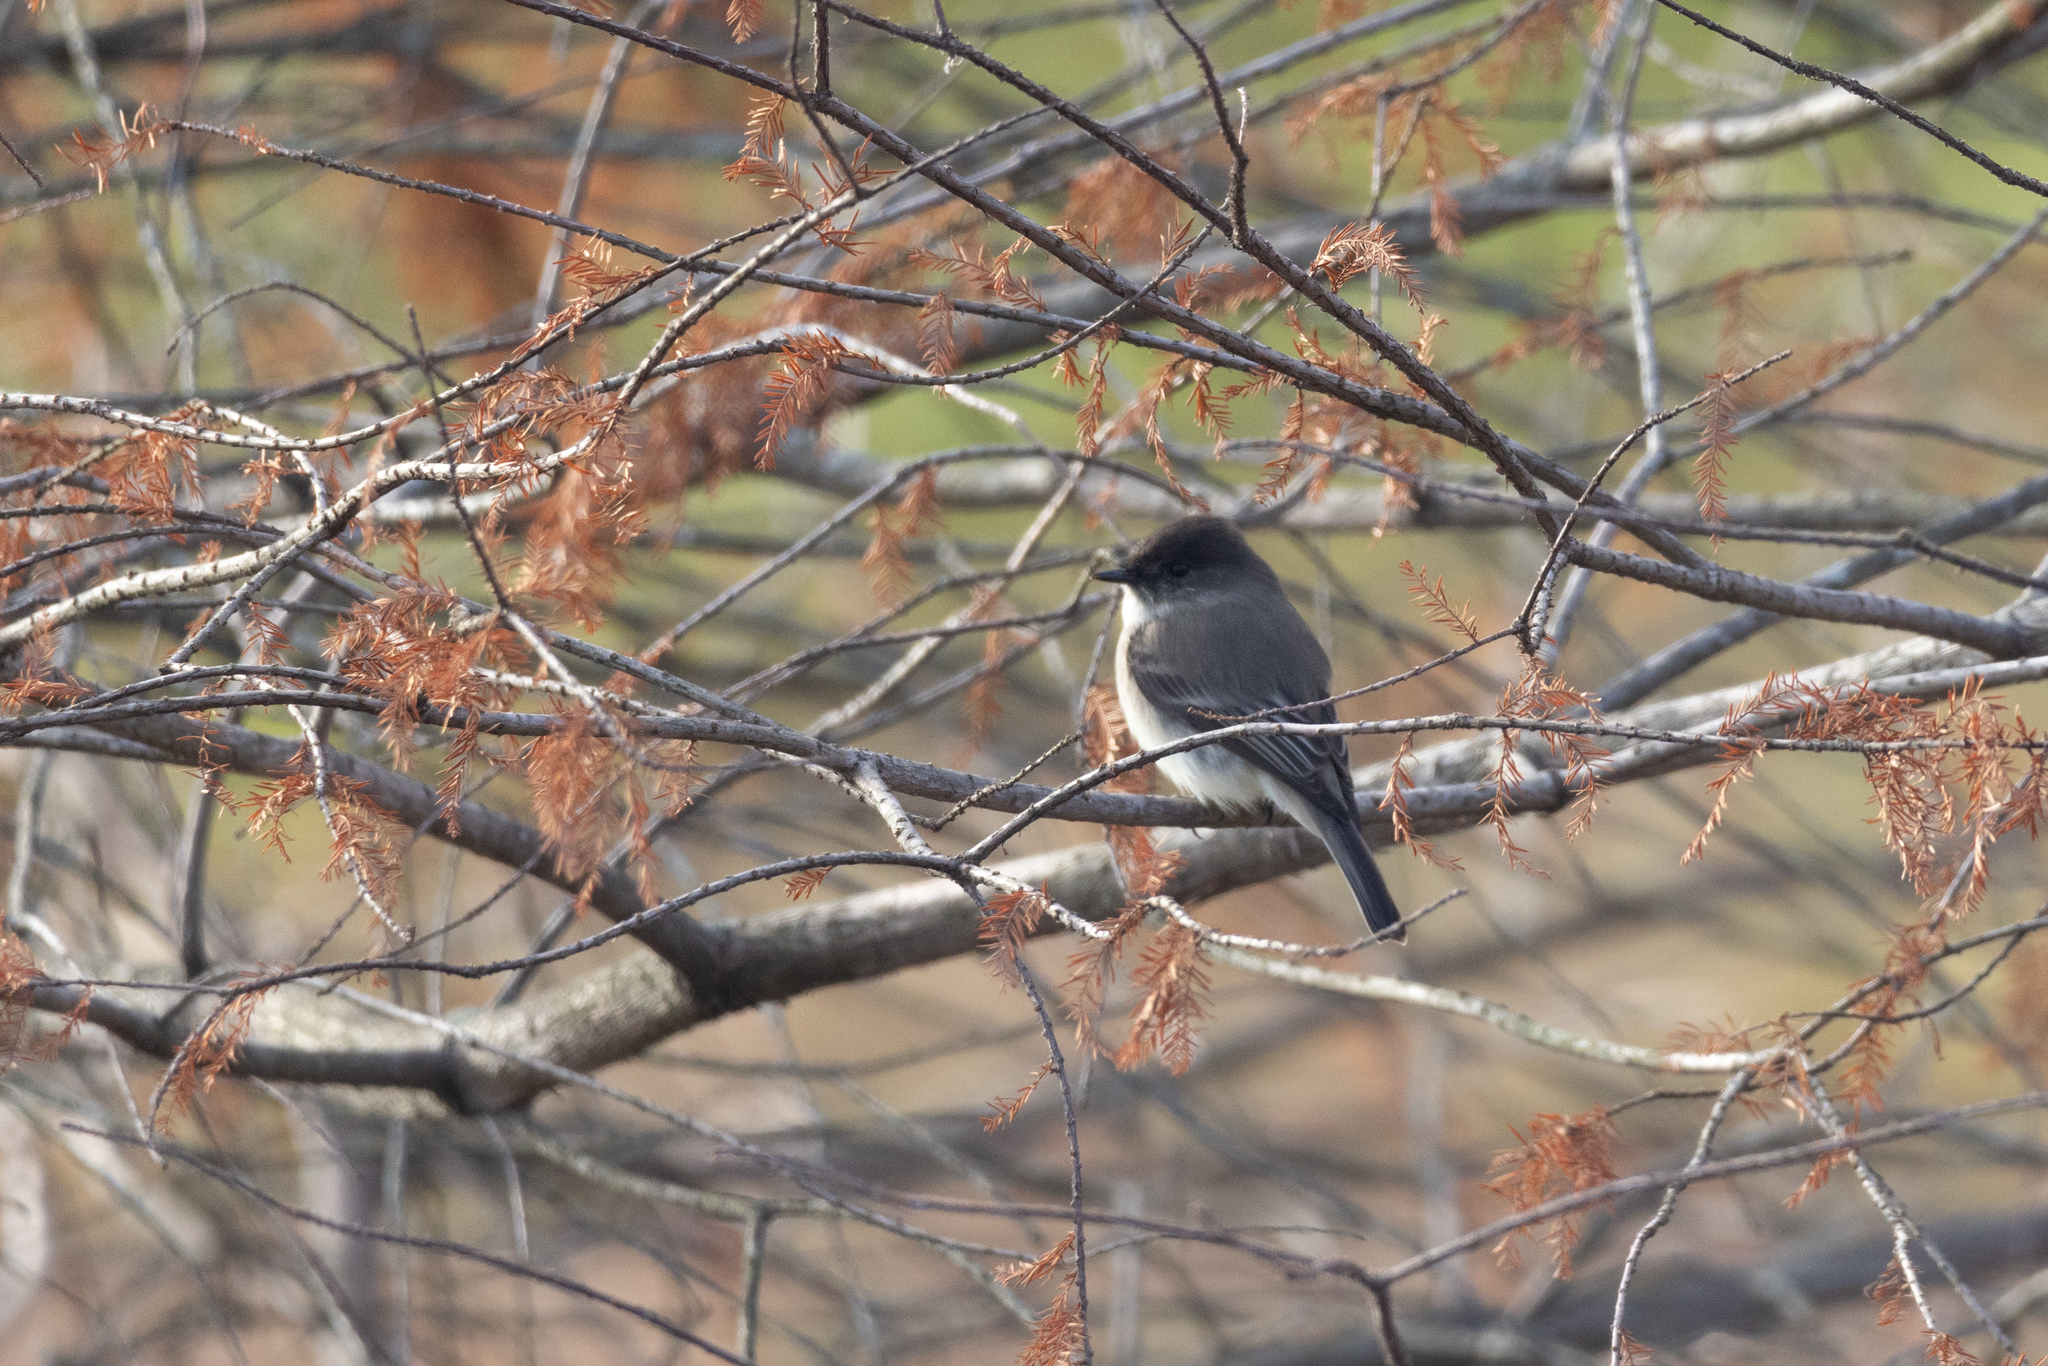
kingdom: Animalia
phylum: Chordata
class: Aves
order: Passeriformes
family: Tyrannidae
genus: Sayornis
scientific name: Sayornis phoebe
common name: Eastern phoebe
